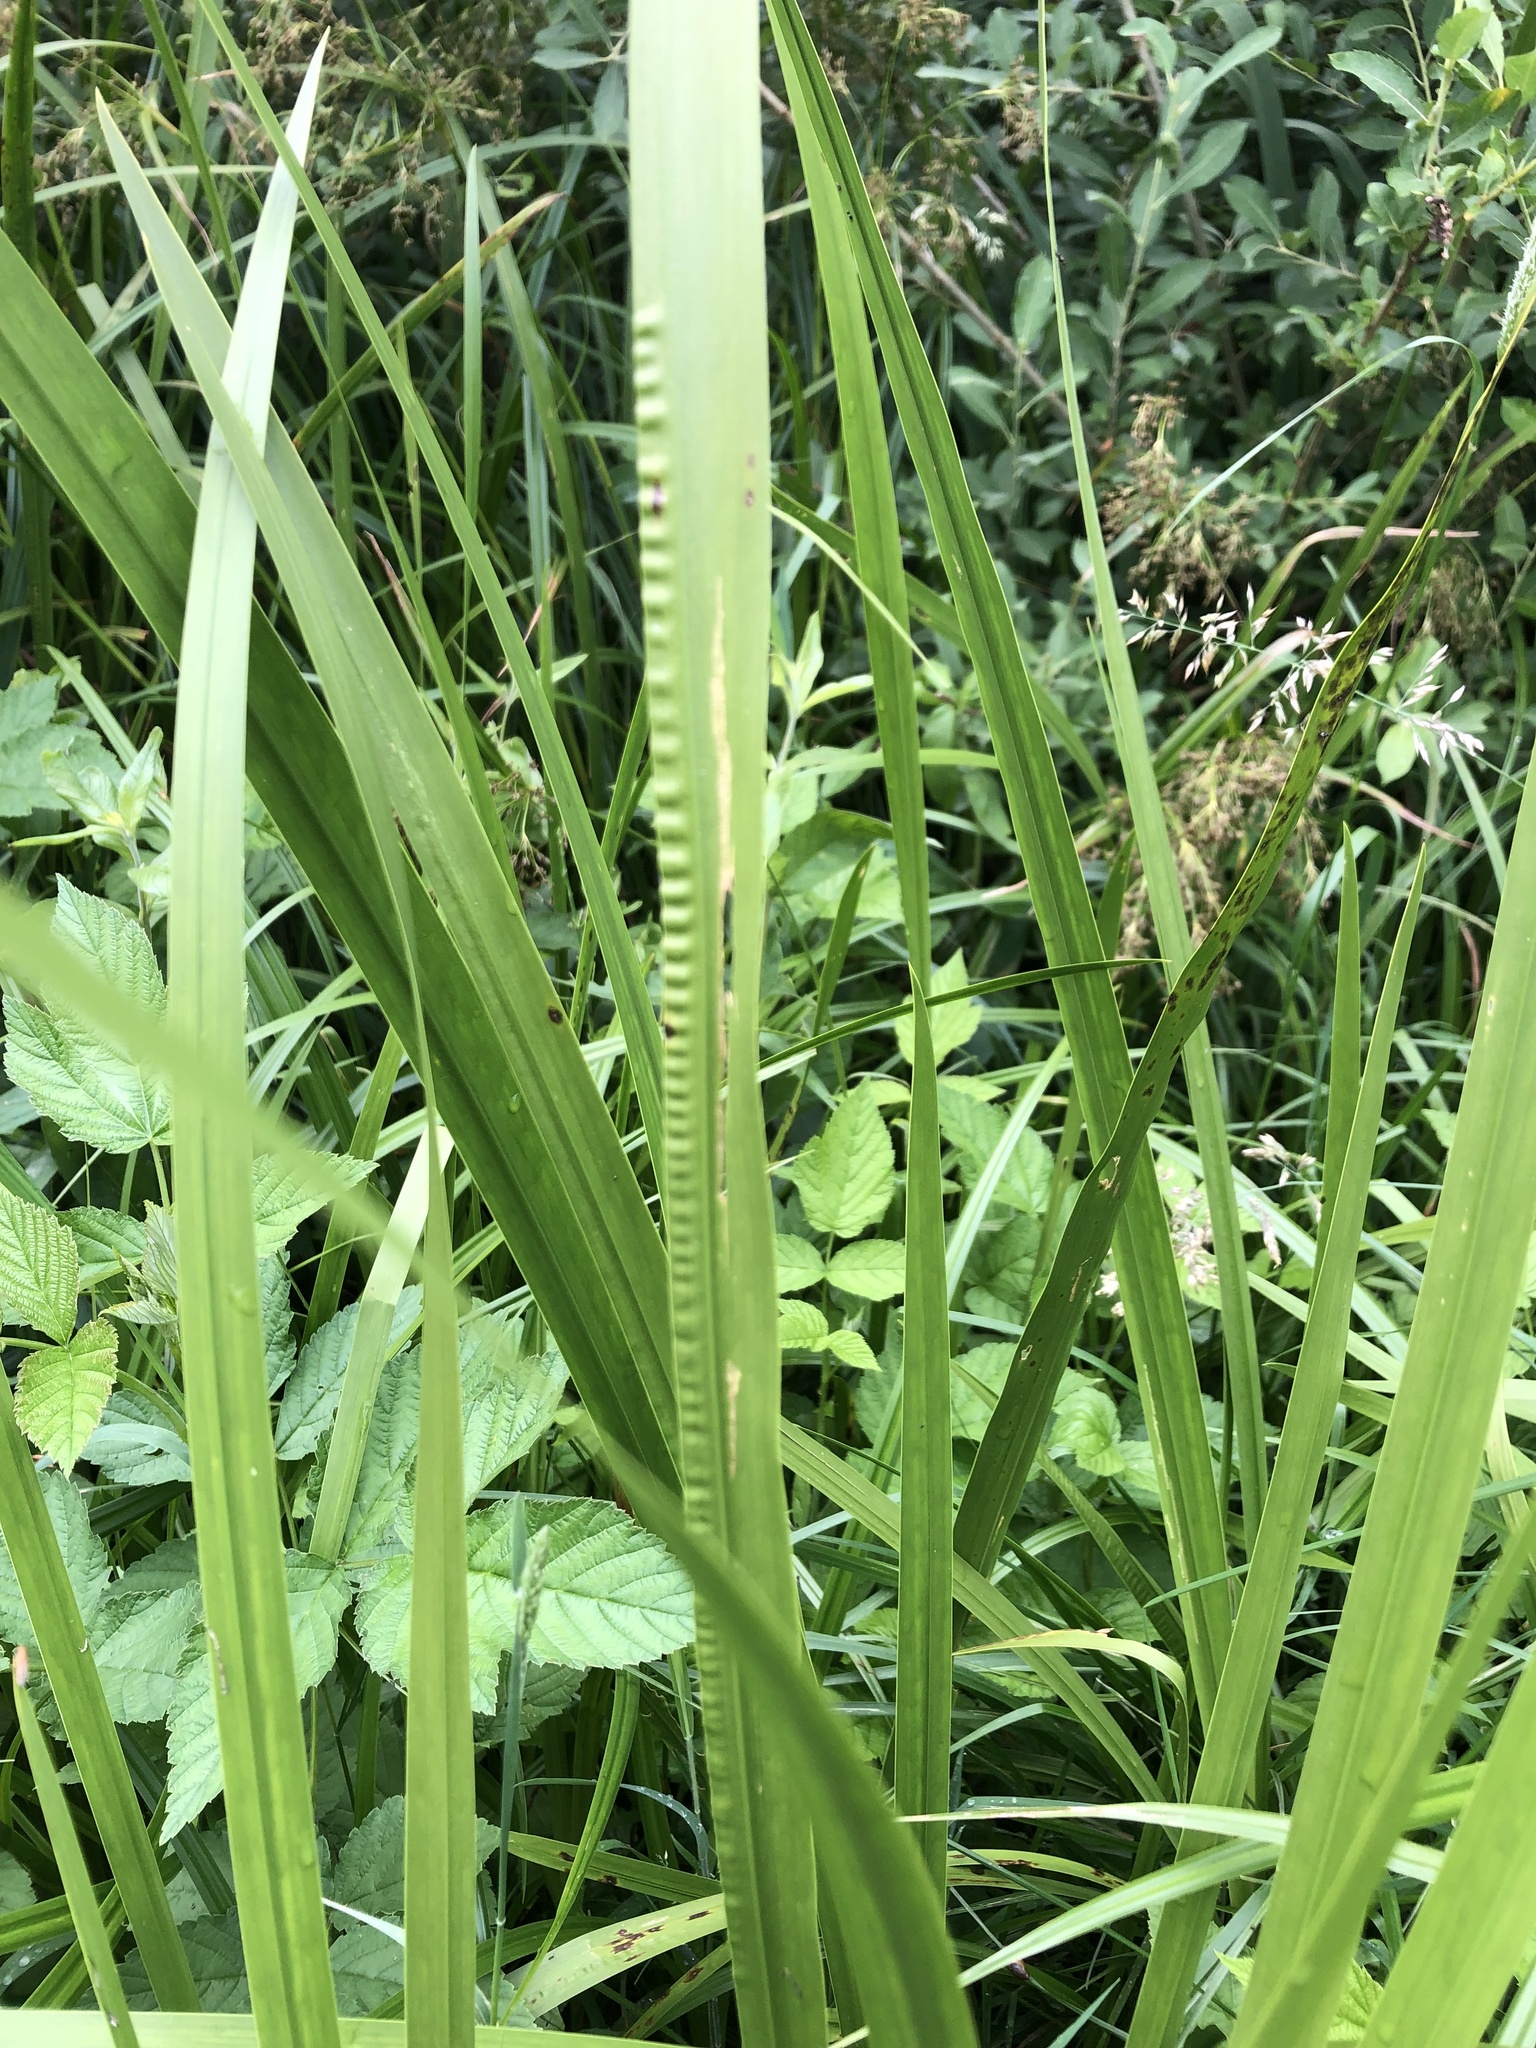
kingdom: Plantae
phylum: Tracheophyta
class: Liliopsida
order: Acorales
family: Acoraceae
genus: Acorus
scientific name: Acorus calamus
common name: Sweet-flag
